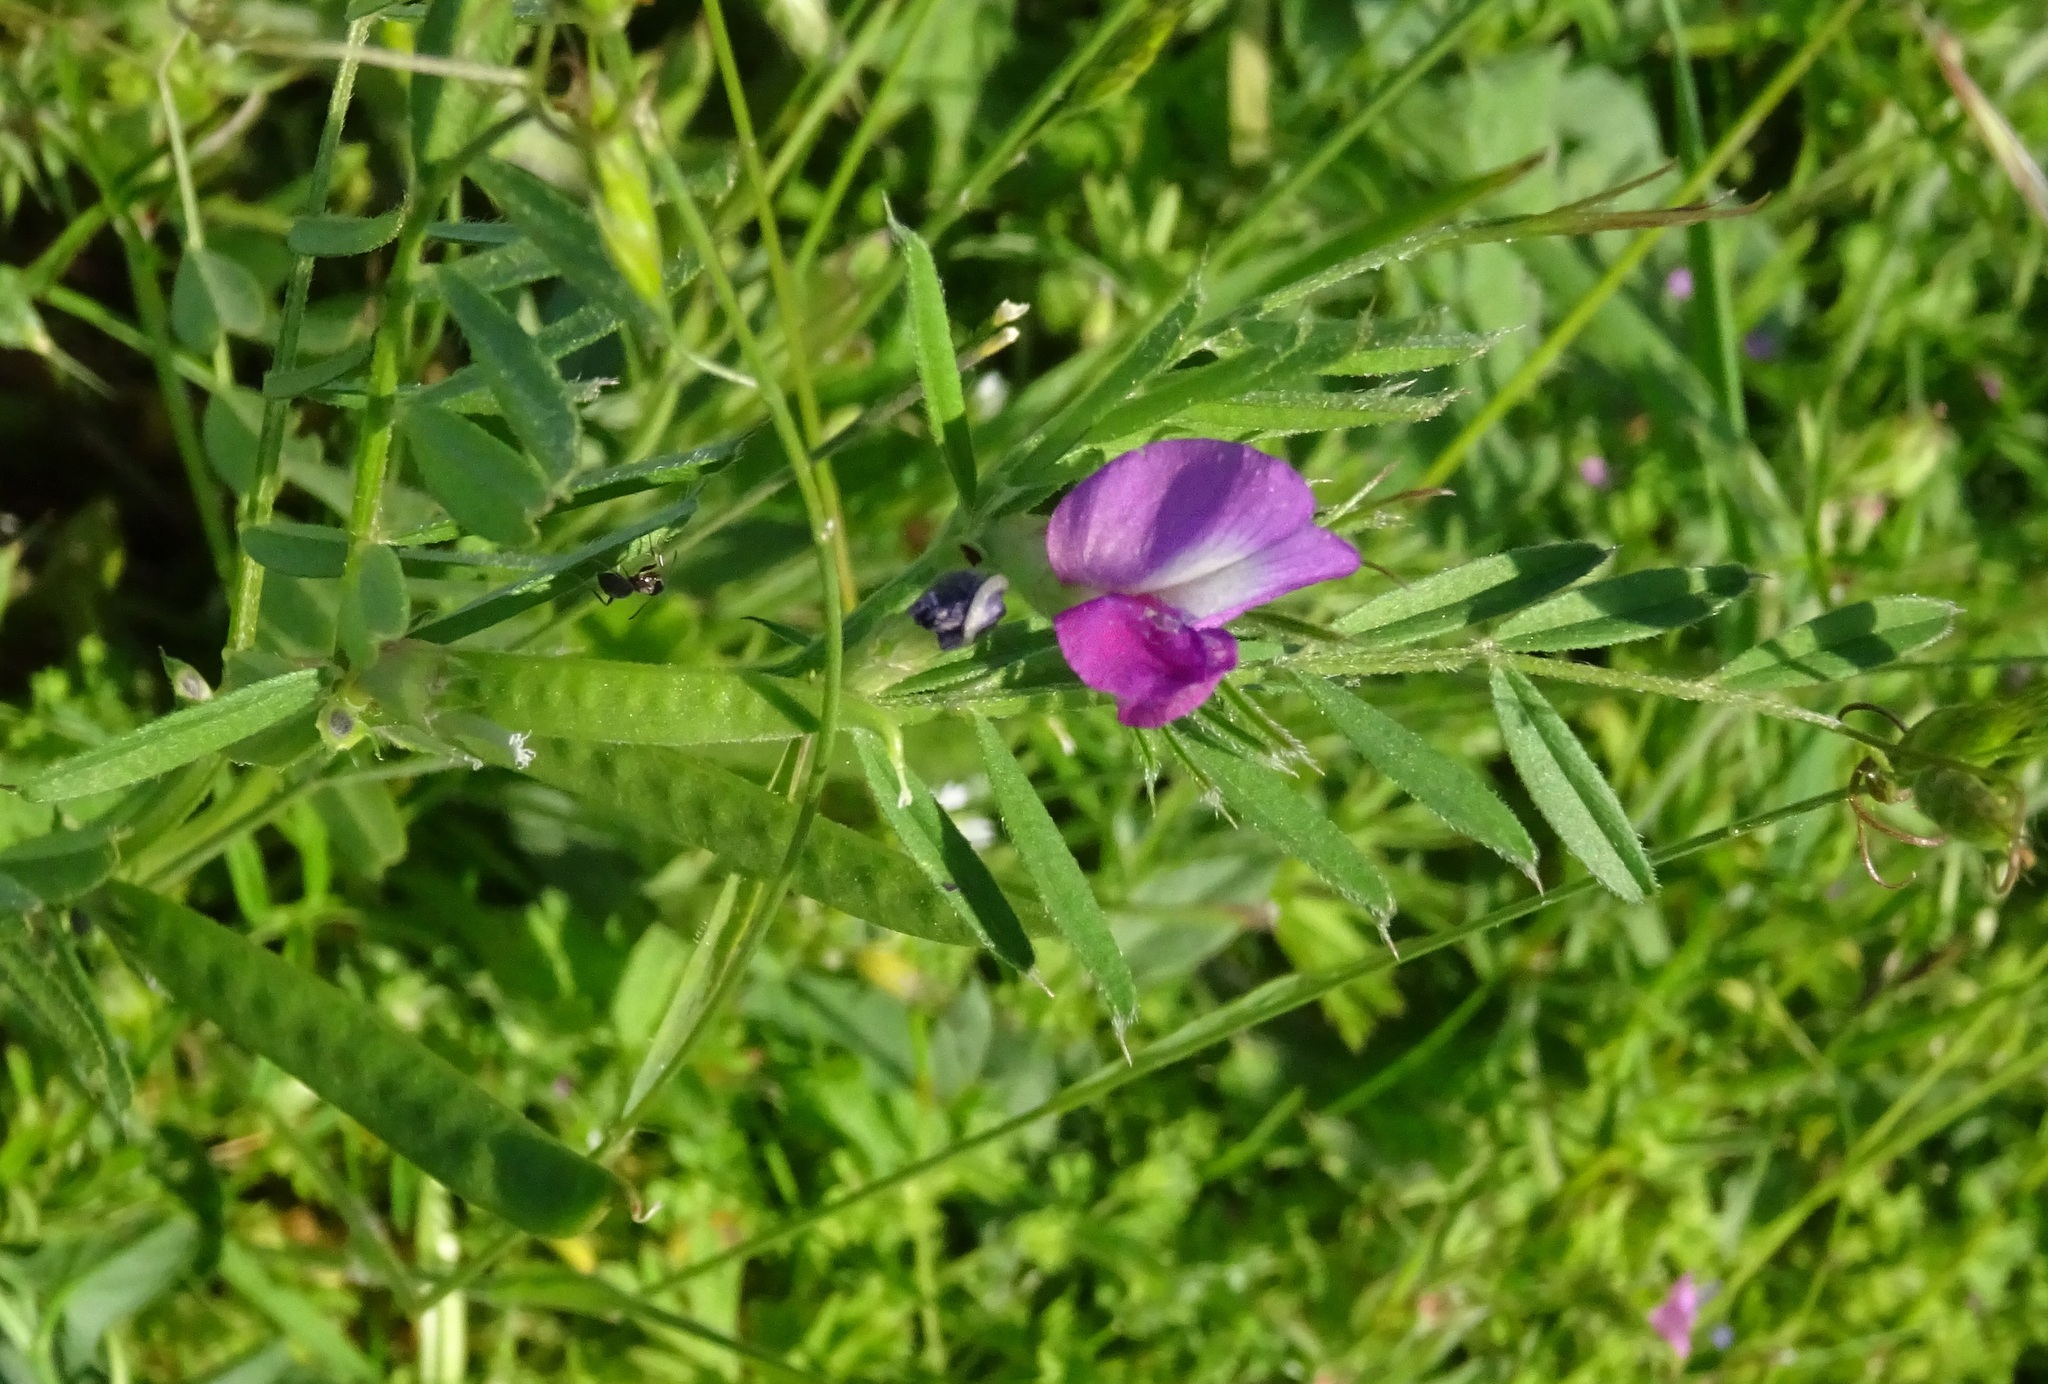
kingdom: Plantae
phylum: Tracheophyta
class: Magnoliopsida
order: Fabales
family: Fabaceae
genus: Vicia
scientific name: Vicia sativa
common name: Garden vetch
